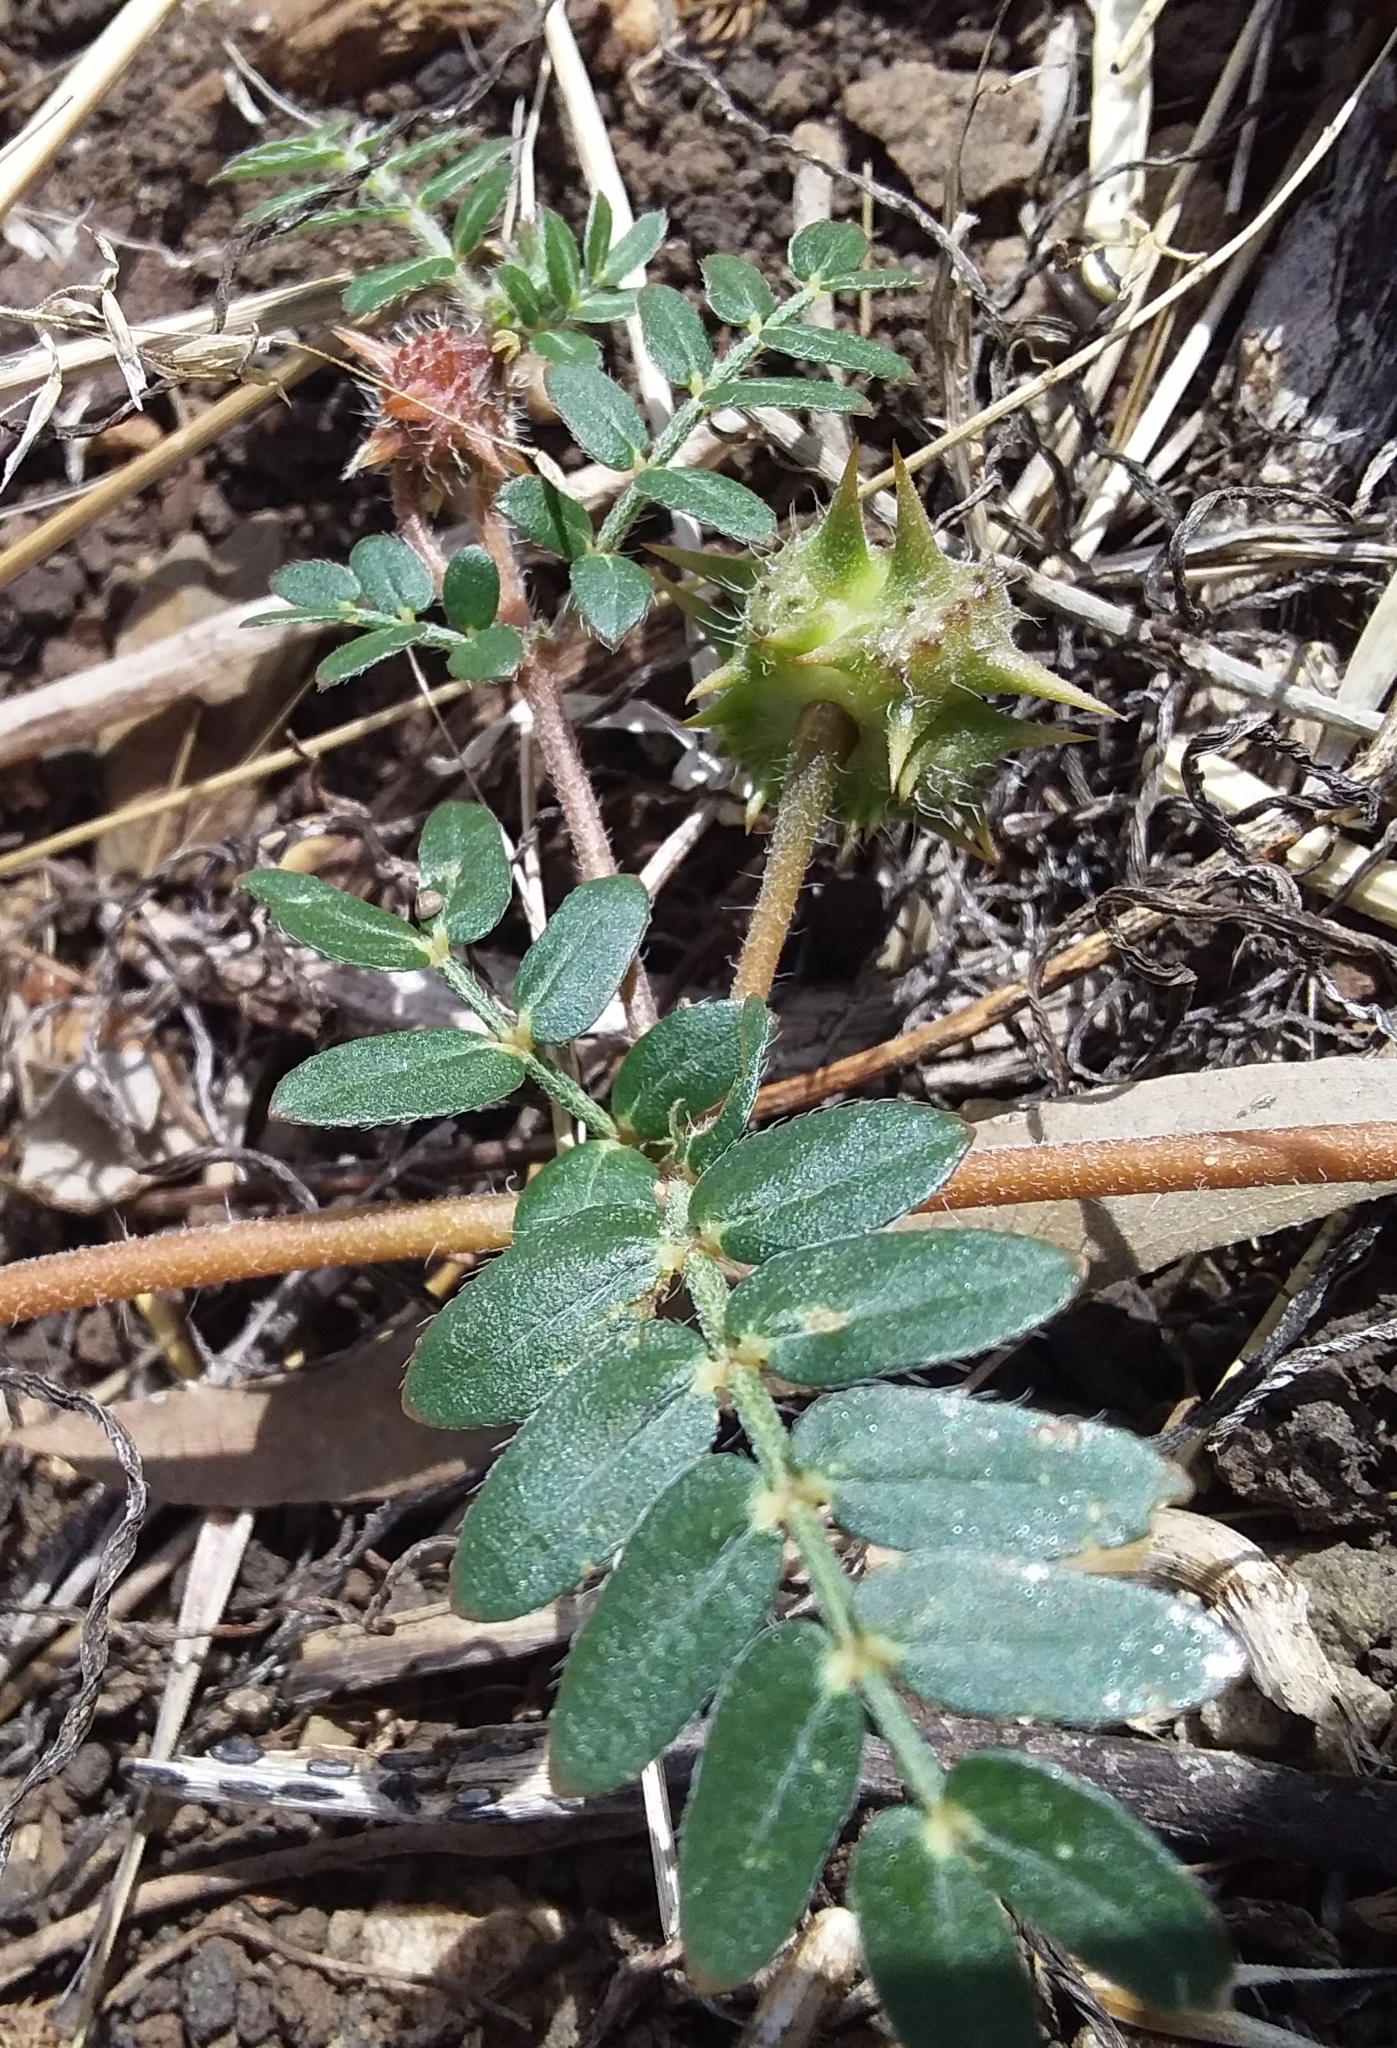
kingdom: Plantae
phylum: Tracheophyta
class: Magnoliopsida
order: Zygophyllales
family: Zygophyllaceae
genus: Tribulus
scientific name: Tribulus terrestris
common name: Puncturevine
